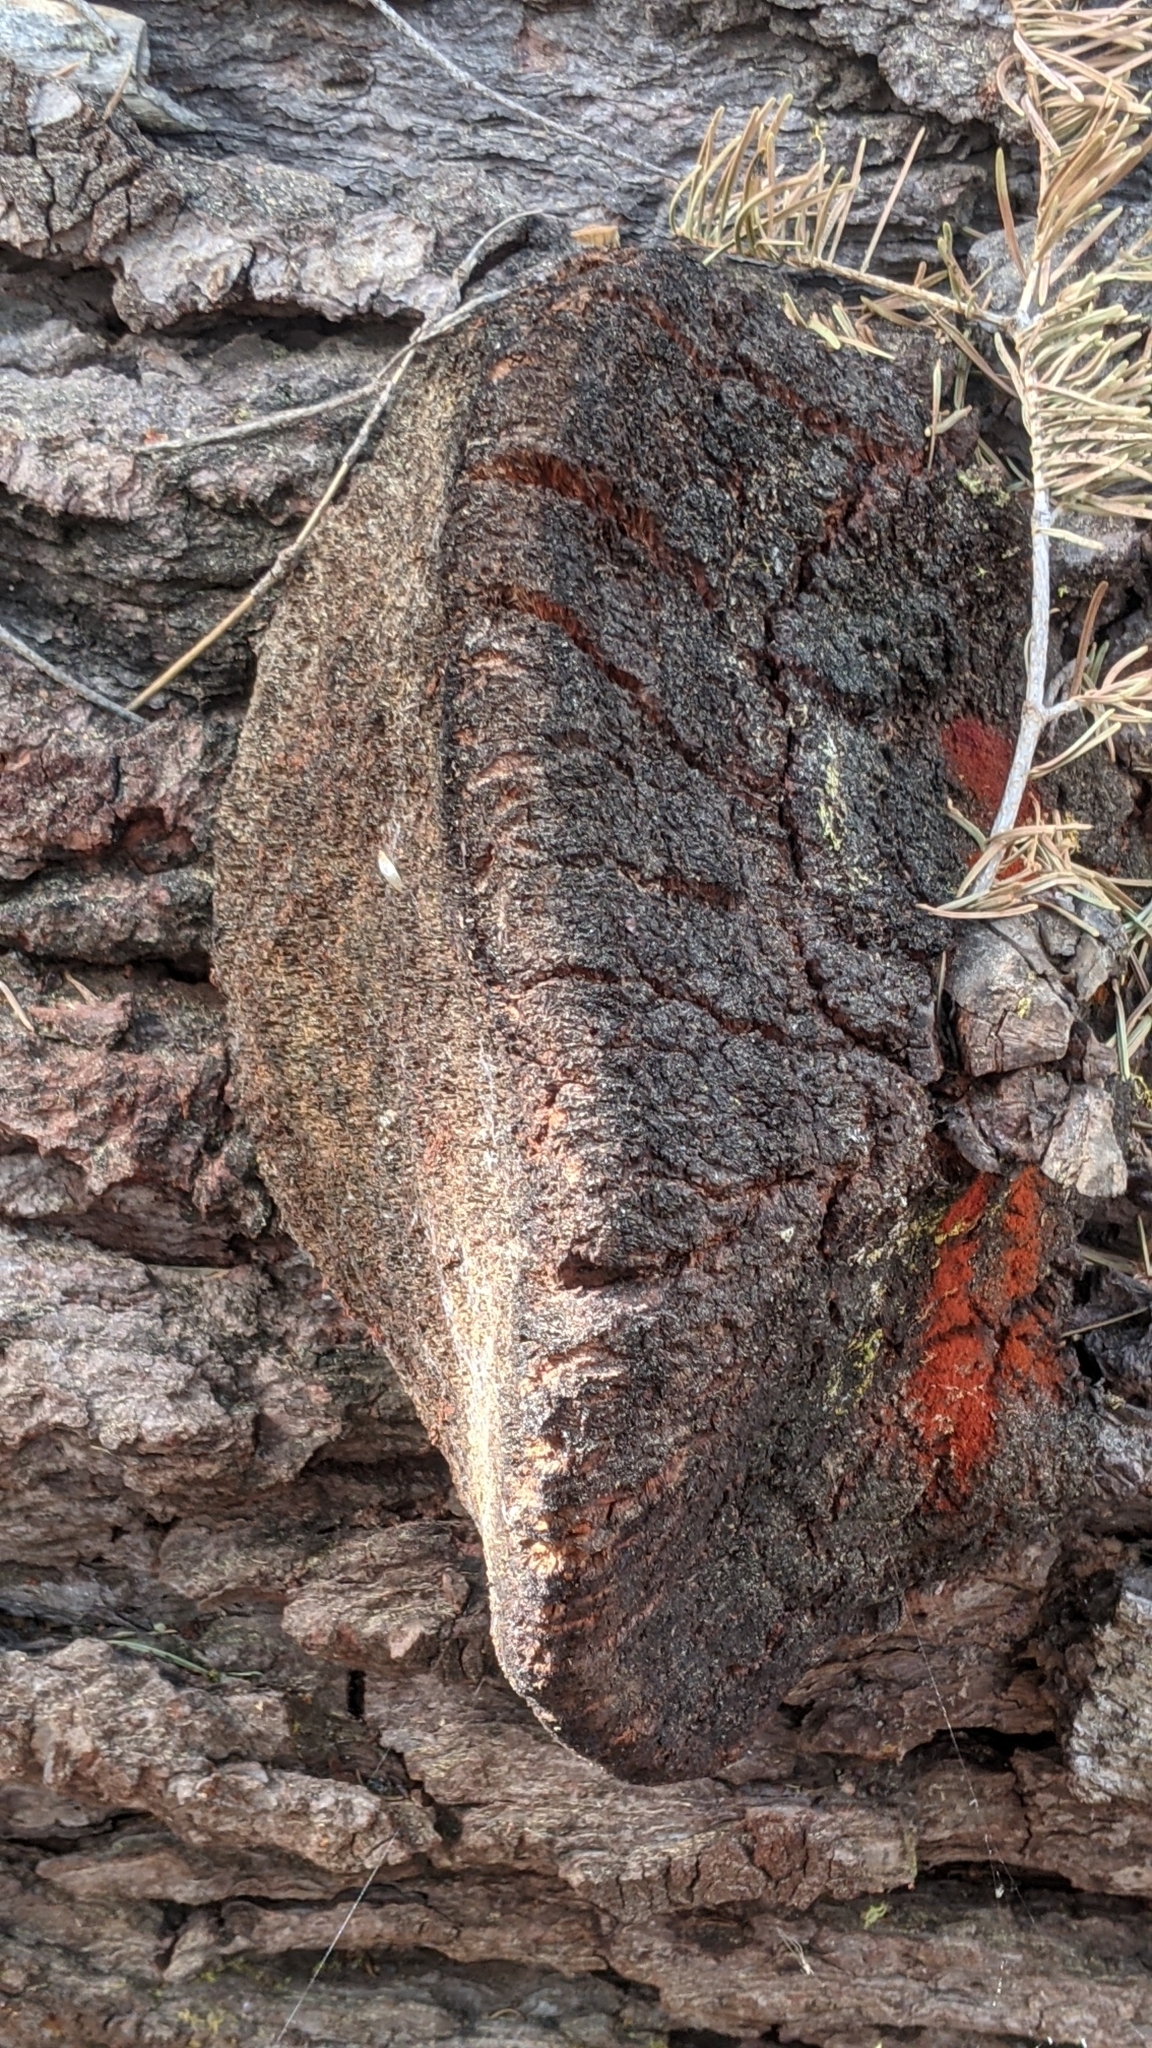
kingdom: Fungi
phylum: Basidiomycota
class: Agaricomycetes
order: Russulales
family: Echinodontiaceae
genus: Echinodontium
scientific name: Echinodontium tinctorium
